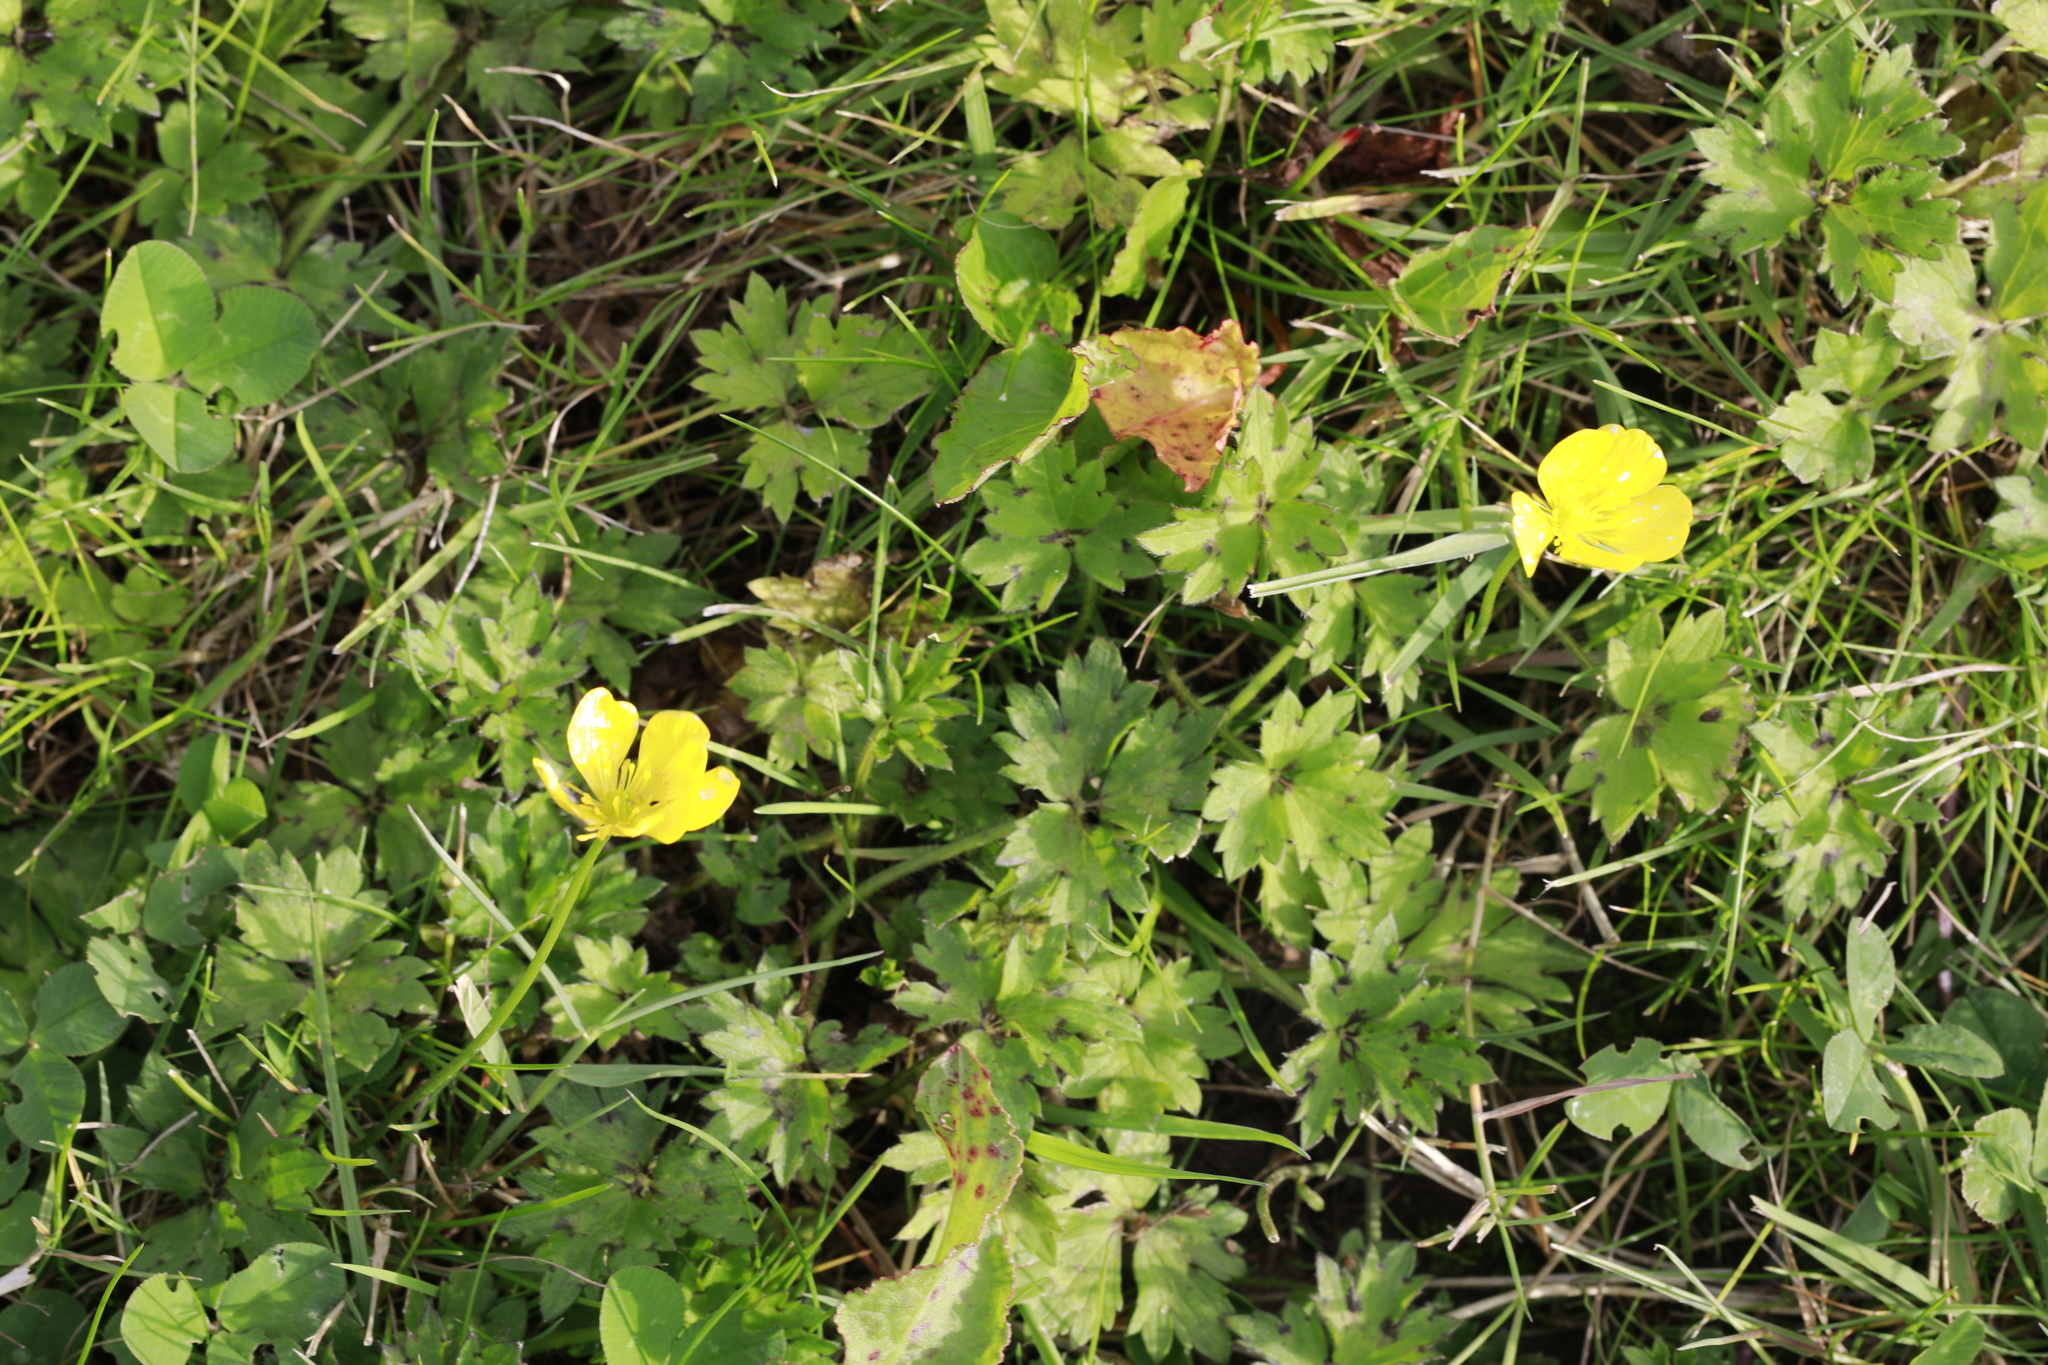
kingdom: Plantae
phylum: Tracheophyta
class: Magnoliopsida
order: Ranunculales
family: Ranunculaceae
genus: Ranunculus
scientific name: Ranunculus repens
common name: Creeping buttercup
